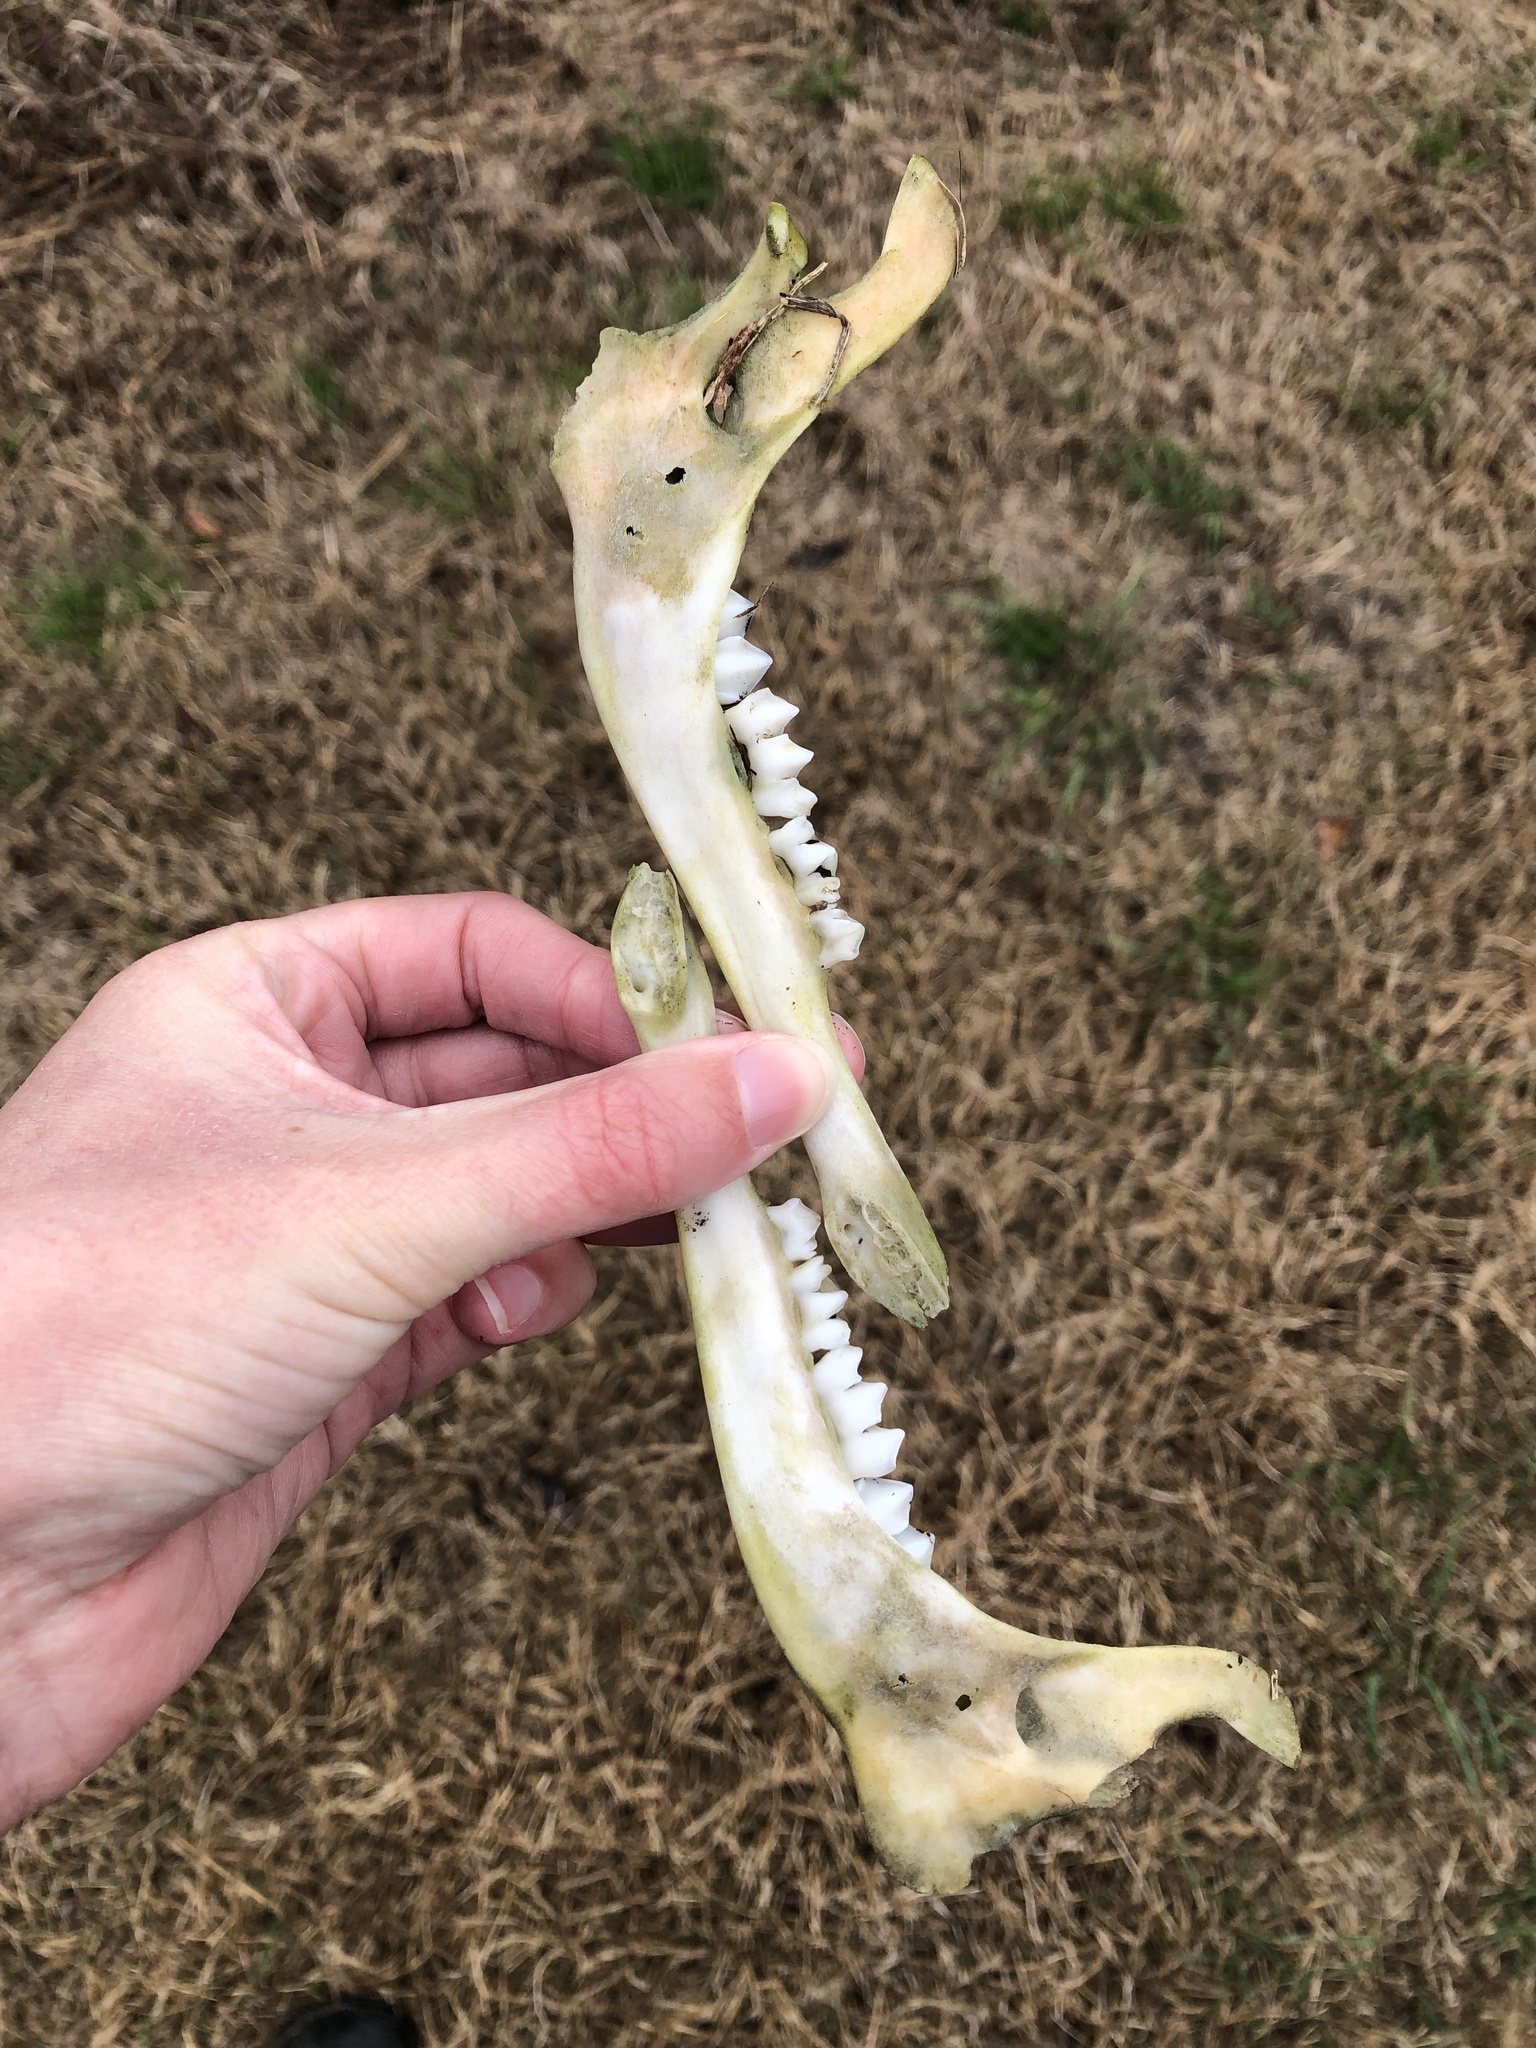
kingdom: Animalia
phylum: Chordata
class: Mammalia
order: Artiodactyla
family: Cervidae
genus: Odocoileus
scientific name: Odocoileus virginianus
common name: White-tailed deer
